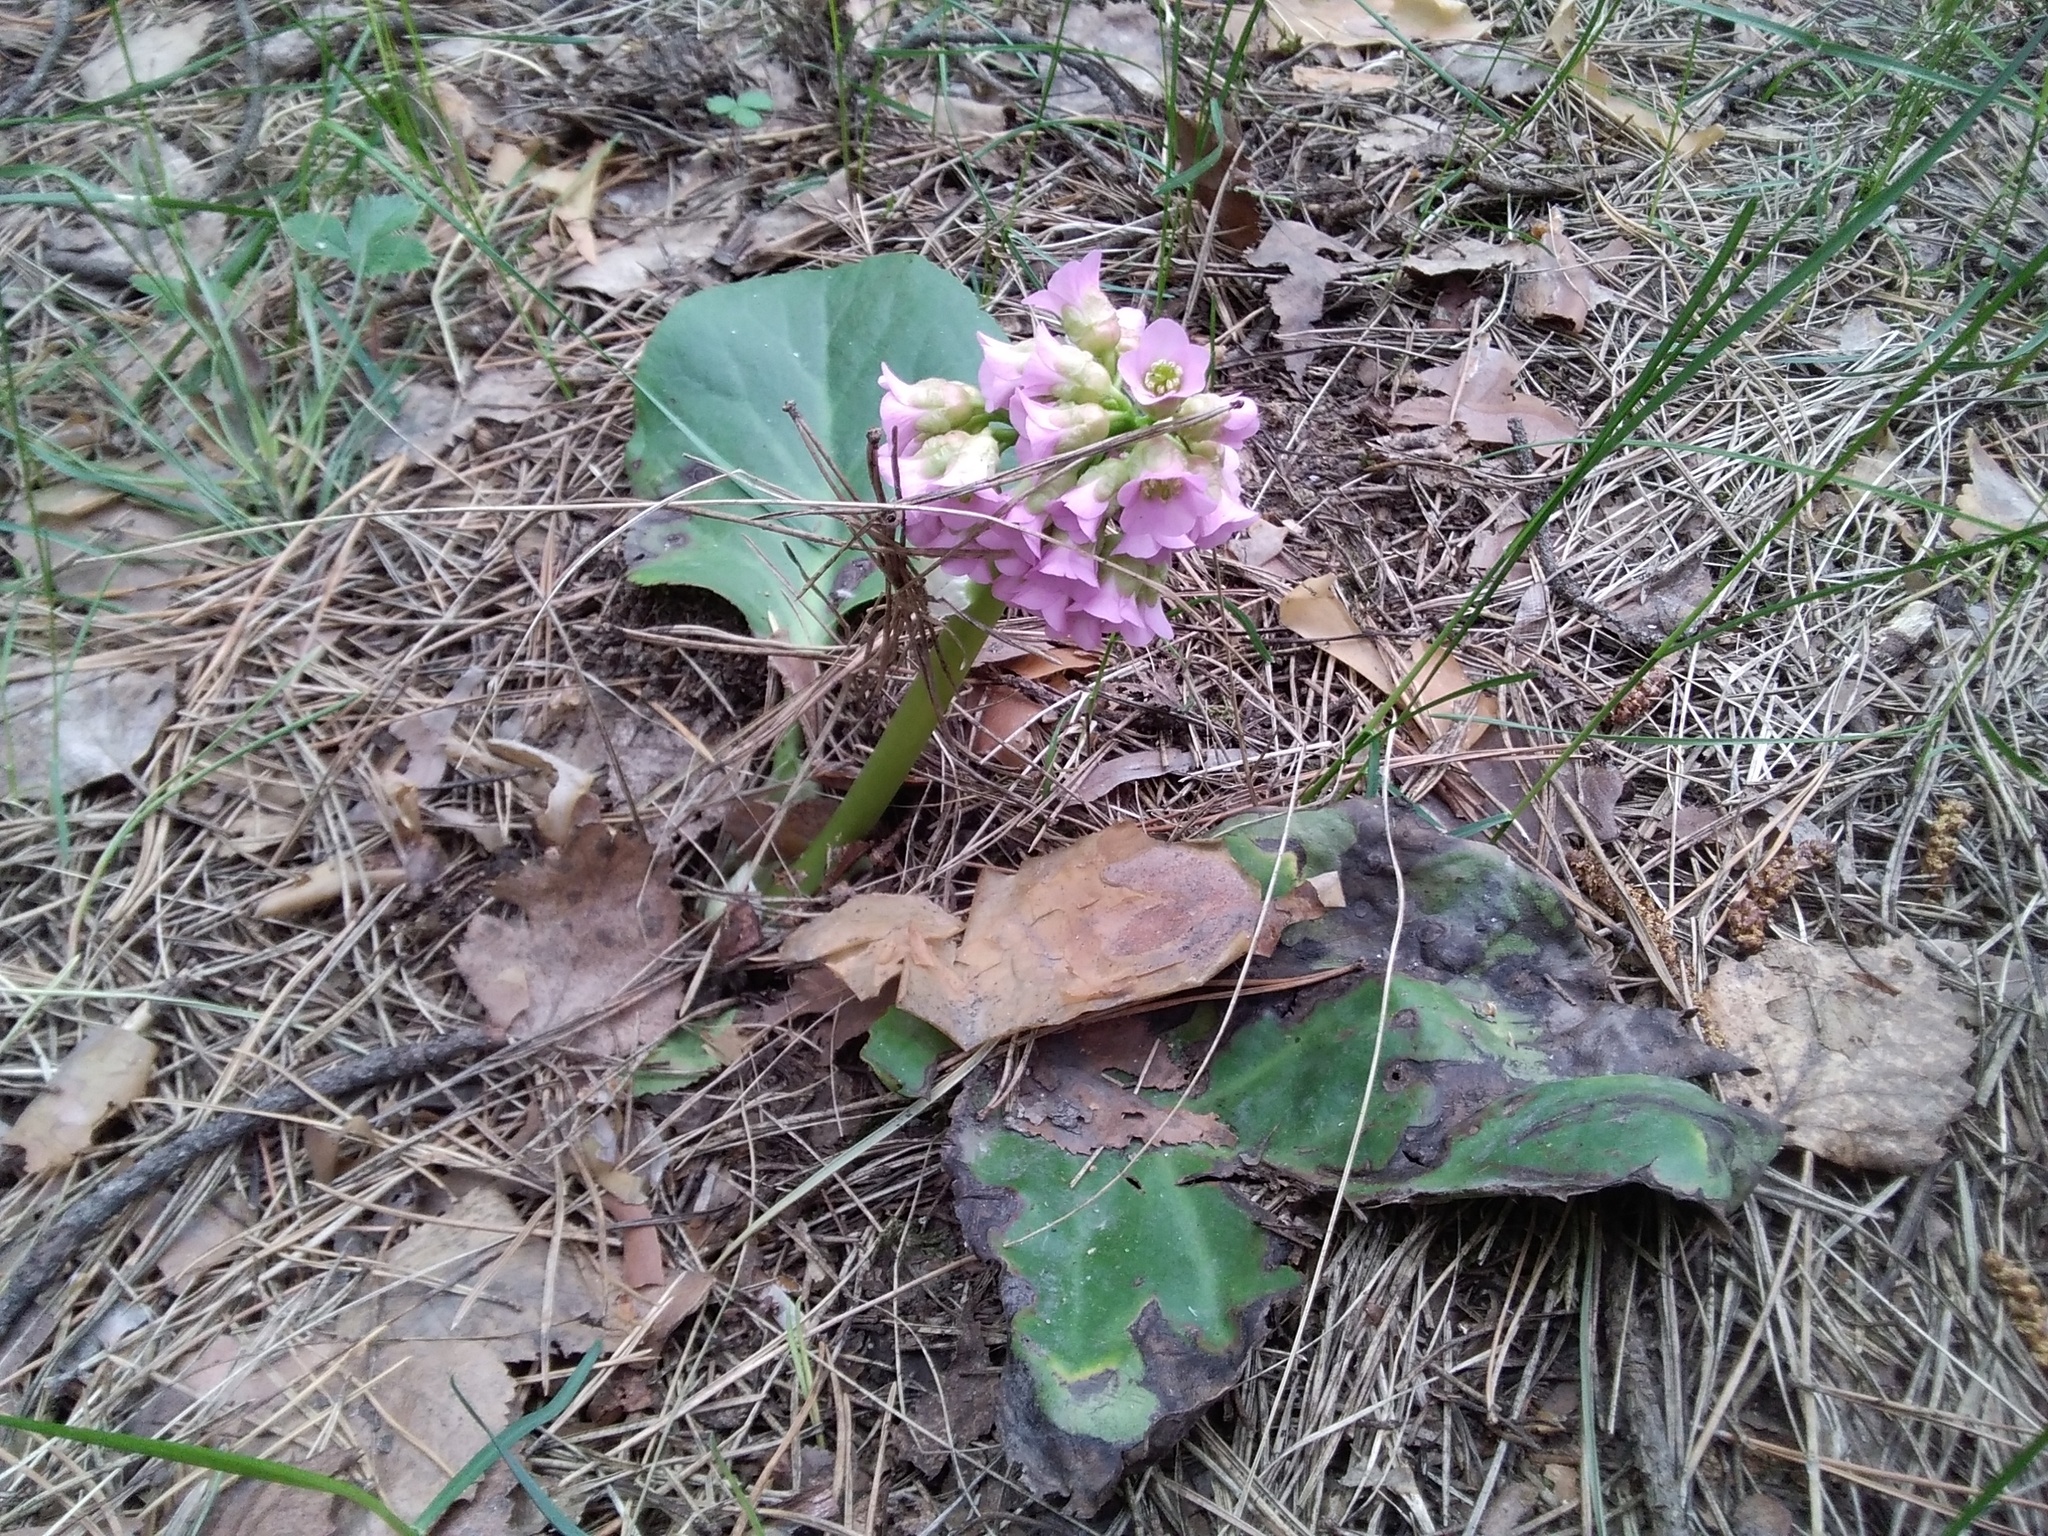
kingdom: Plantae
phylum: Tracheophyta
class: Magnoliopsida
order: Saxifragales
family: Saxifragaceae
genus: Bergenia
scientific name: Bergenia crassifolia
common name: Elephant-ears
